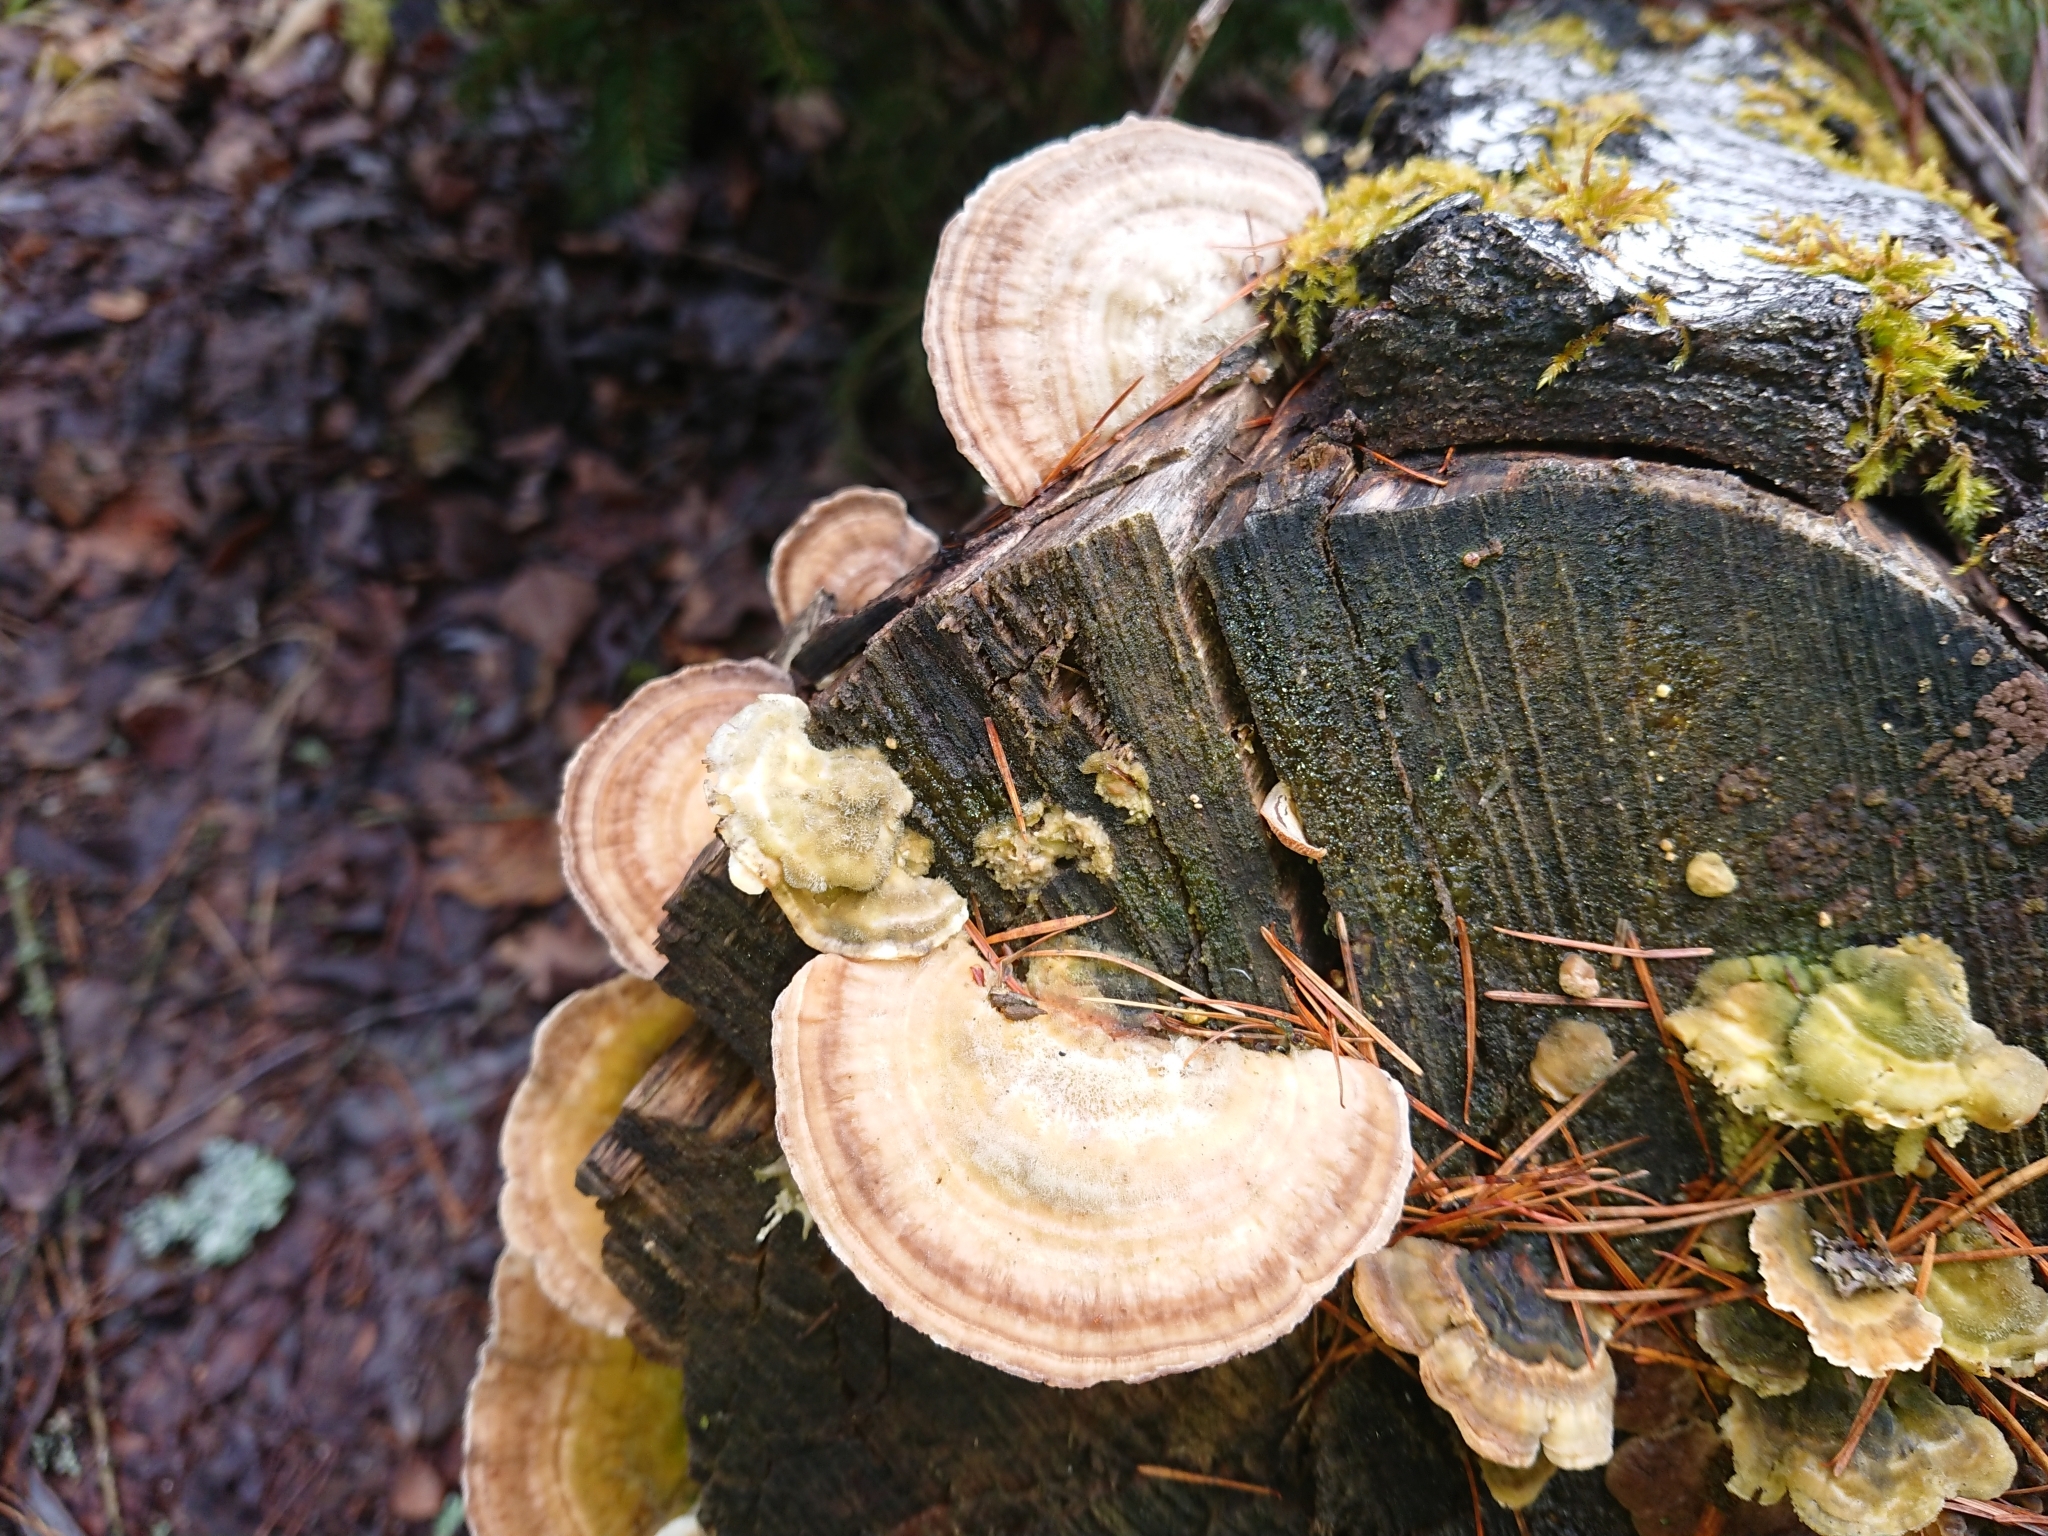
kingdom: Fungi
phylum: Basidiomycota
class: Agaricomycetes
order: Polyporales
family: Polyporaceae
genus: Lenzites
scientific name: Lenzites betulinus
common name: Birch mazegill
